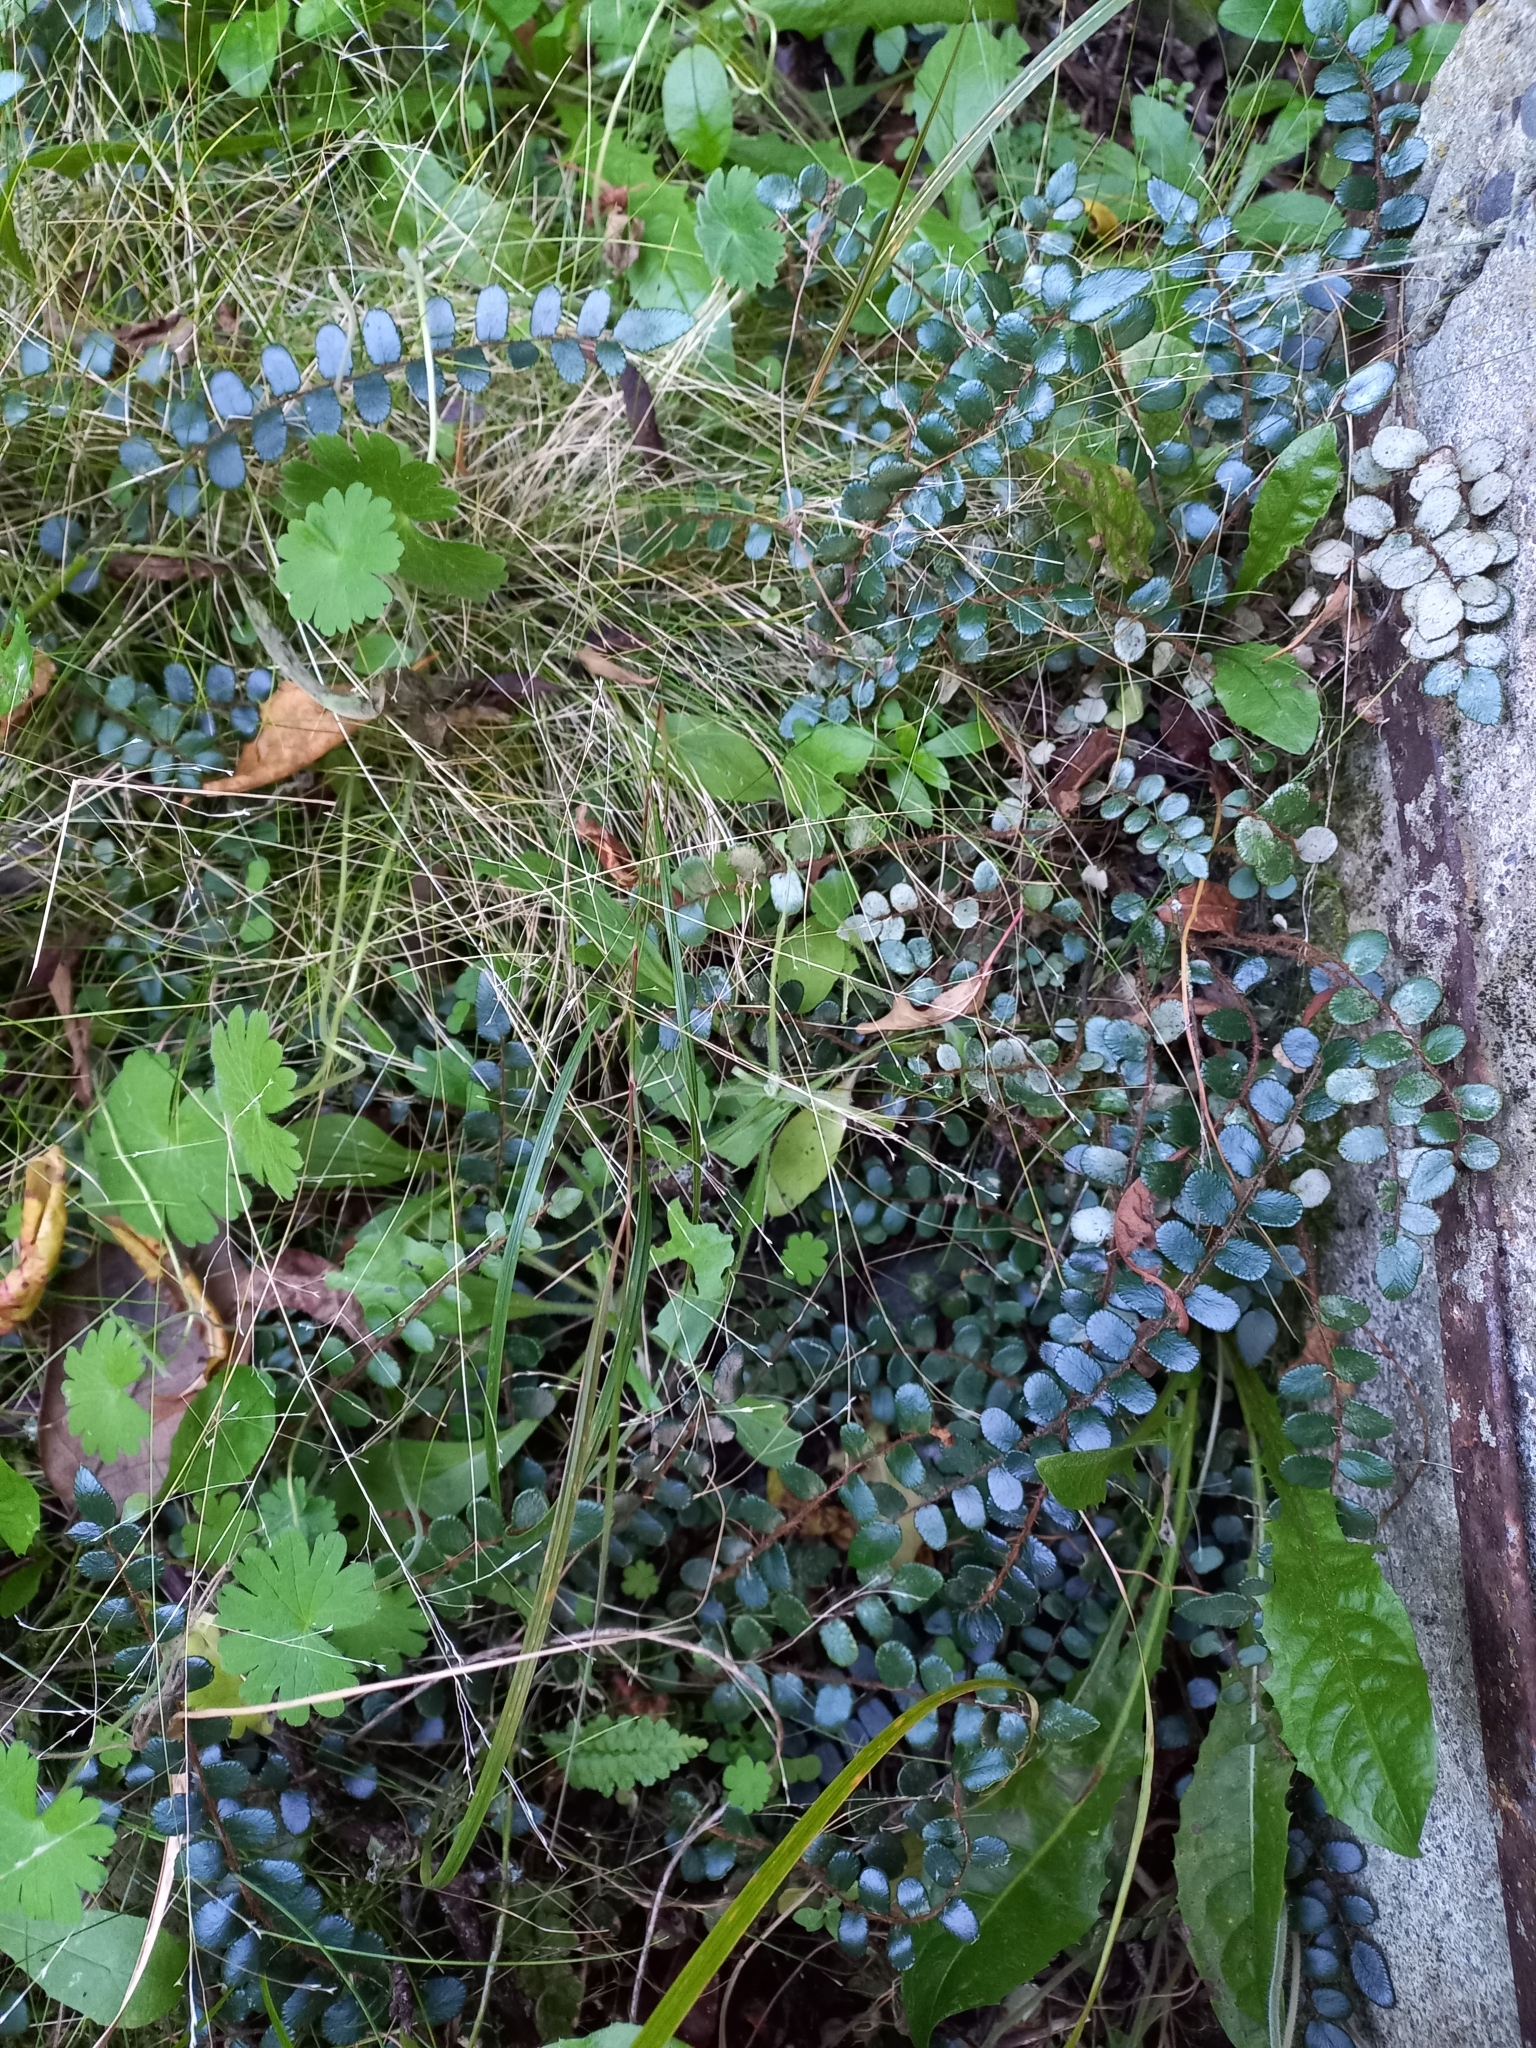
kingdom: Plantae
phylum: Tracheophyta
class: Polypodiopsida
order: Polypodiales
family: Pteridaceae
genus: Pellaea
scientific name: Pellaea rotundifolia
